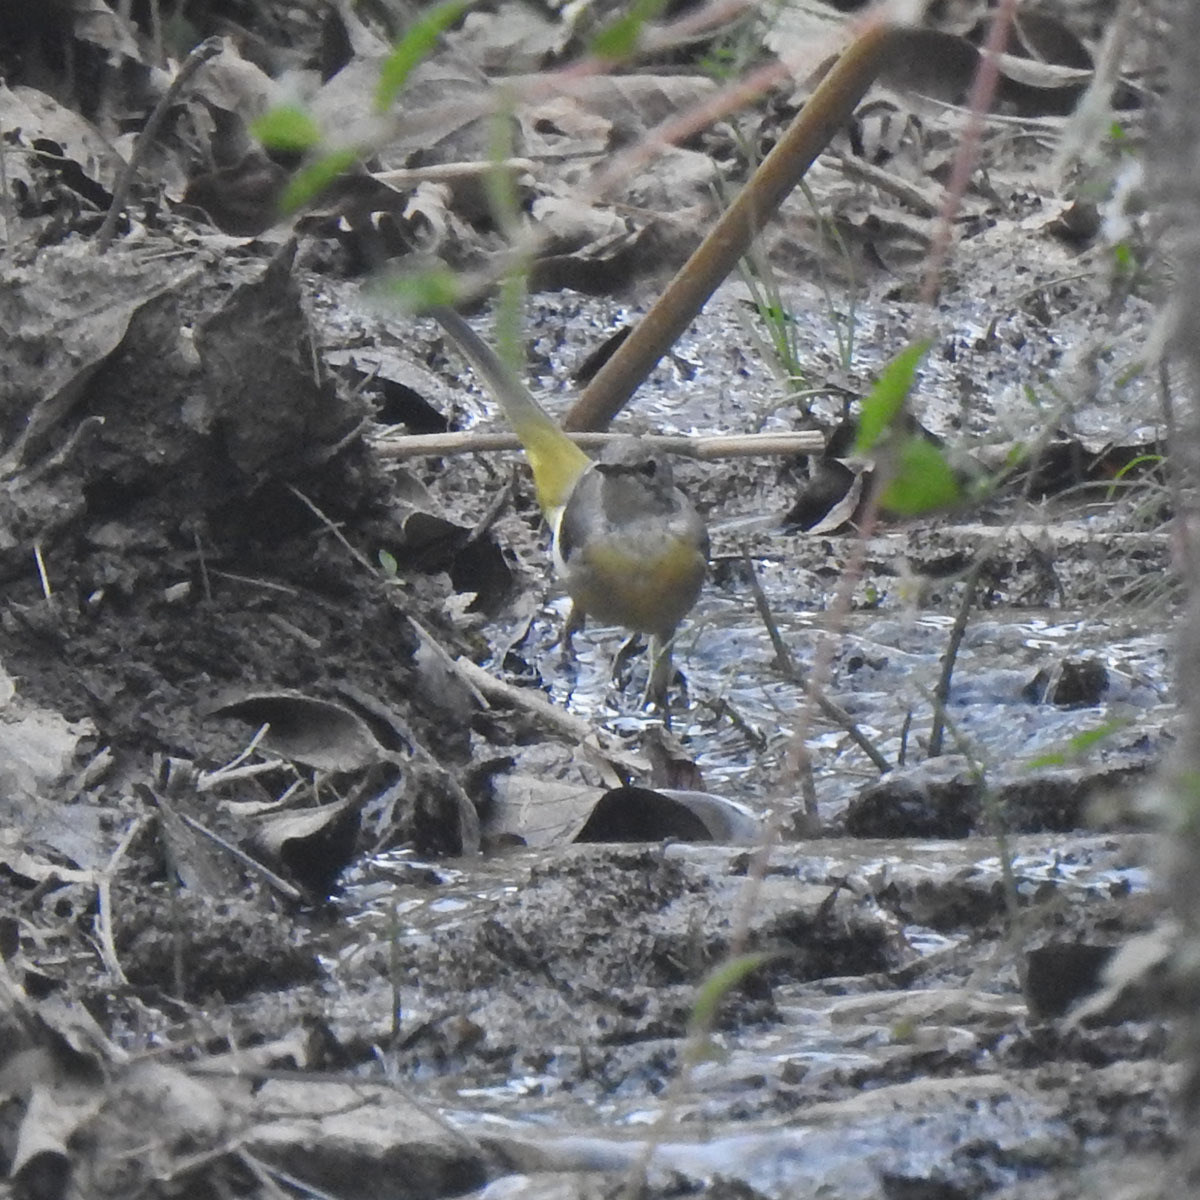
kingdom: Animalia
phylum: Chordata
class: Aves
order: Passeriformes
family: Motacillidae
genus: Motacilla
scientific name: Motacilla cinerea
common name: Grey wagtail
